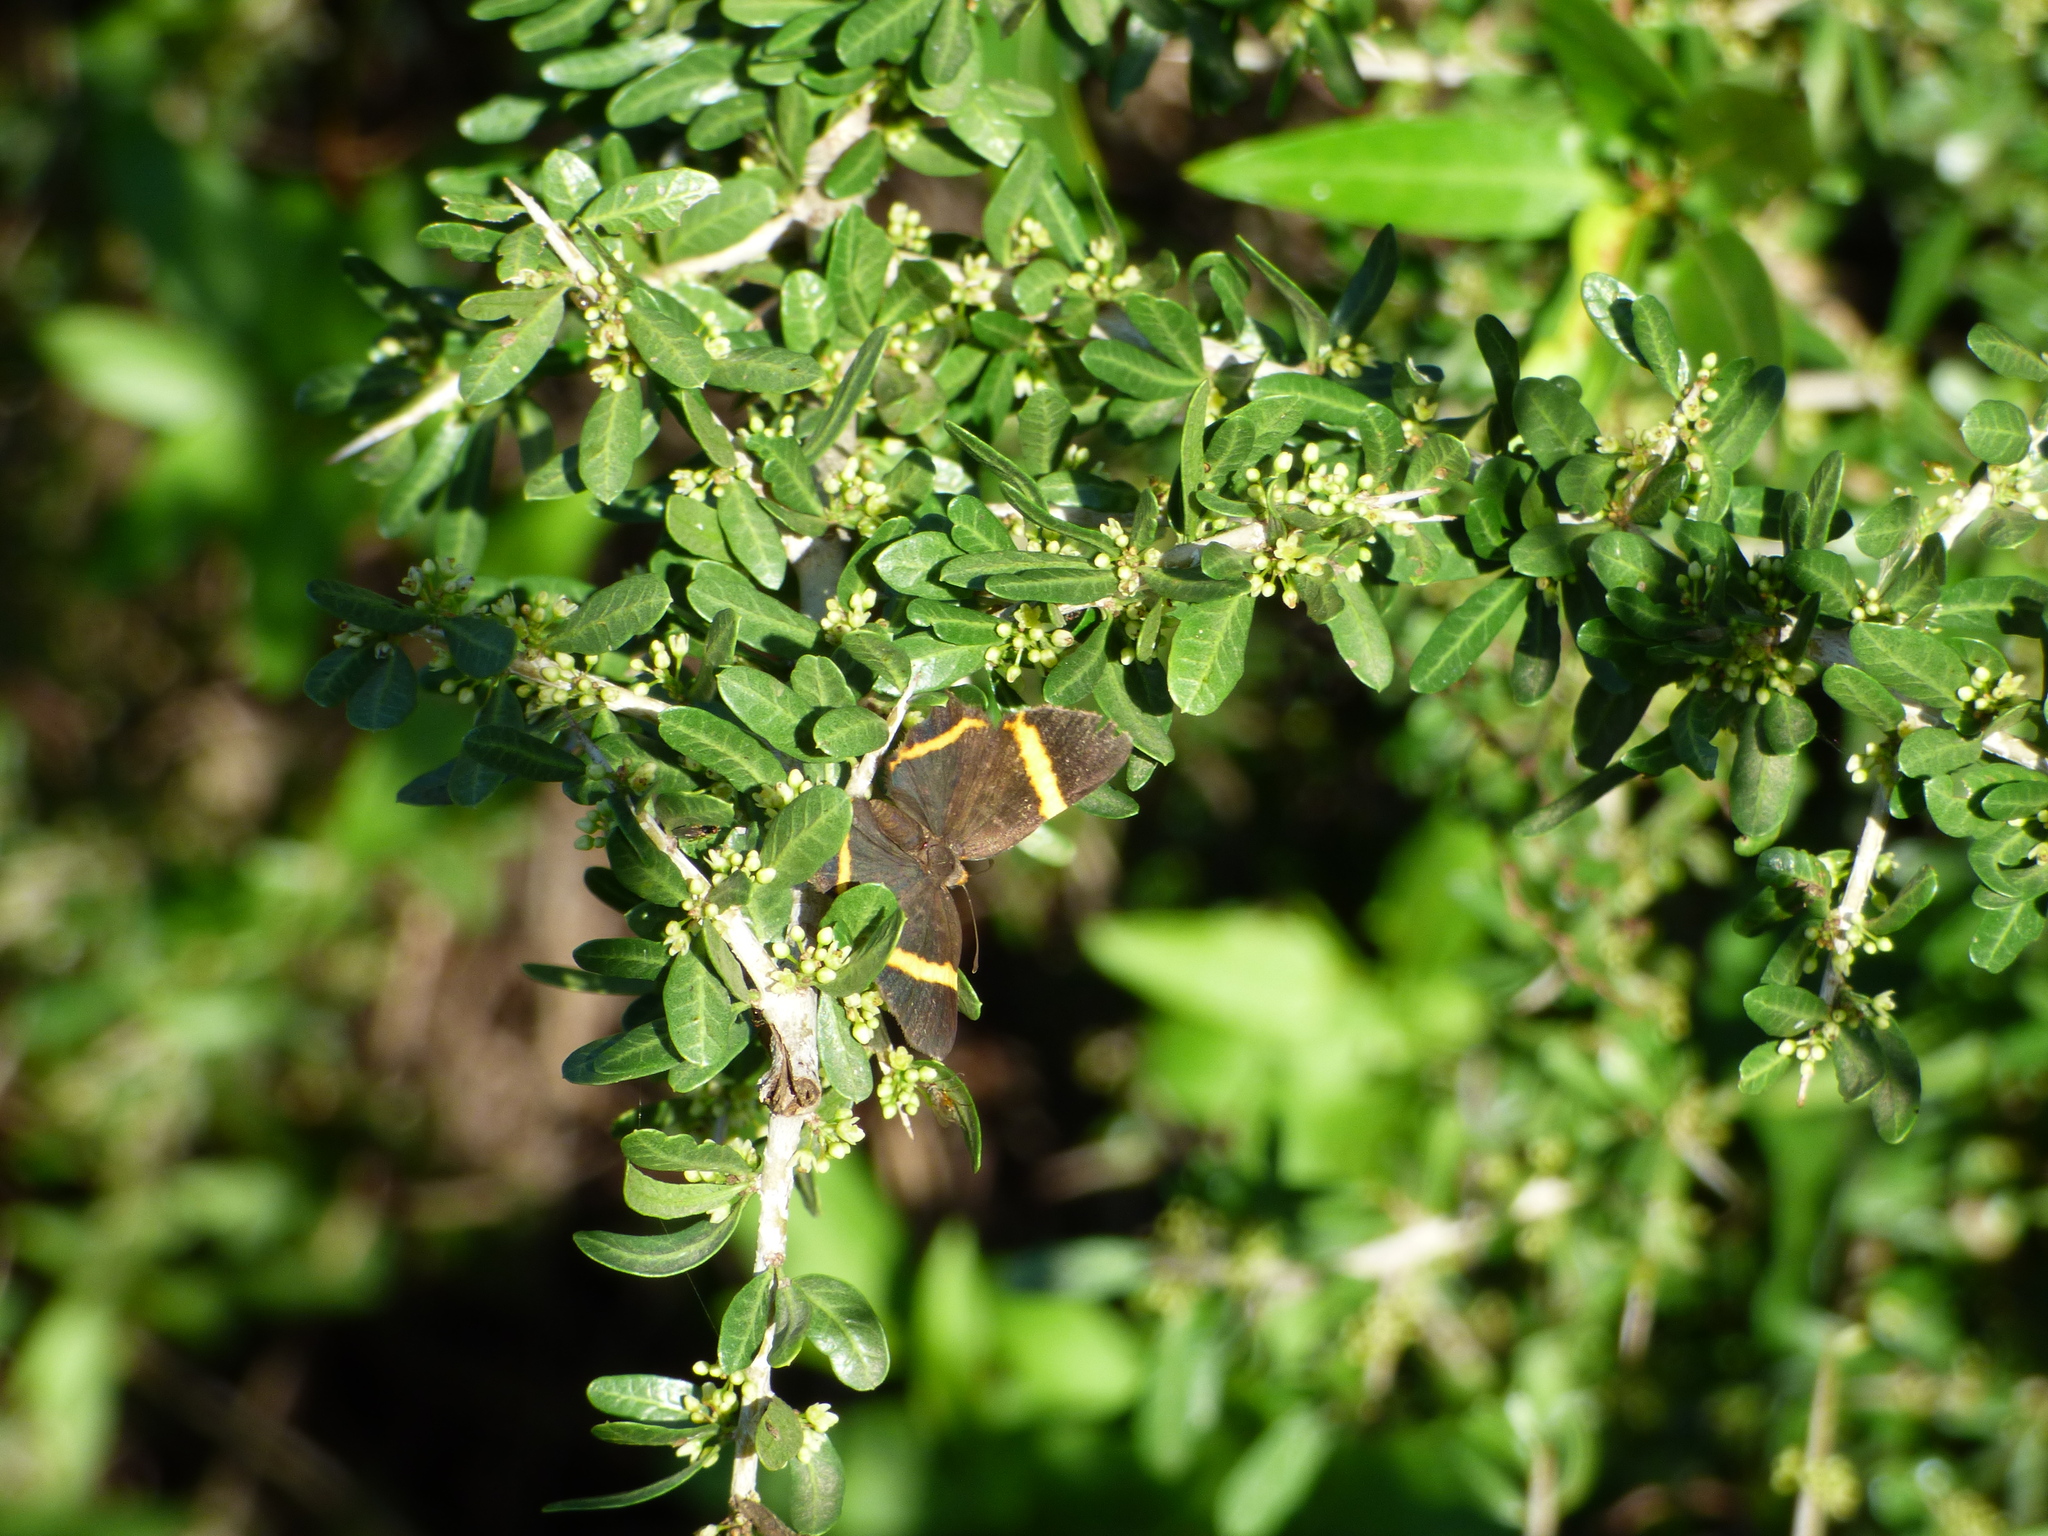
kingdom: Animalia
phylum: Arthropoda
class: Insecta
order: Lepidoptera
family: Riodinidae
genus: Riodina
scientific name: Riodina lysippoides
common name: Little dancer metalmark
